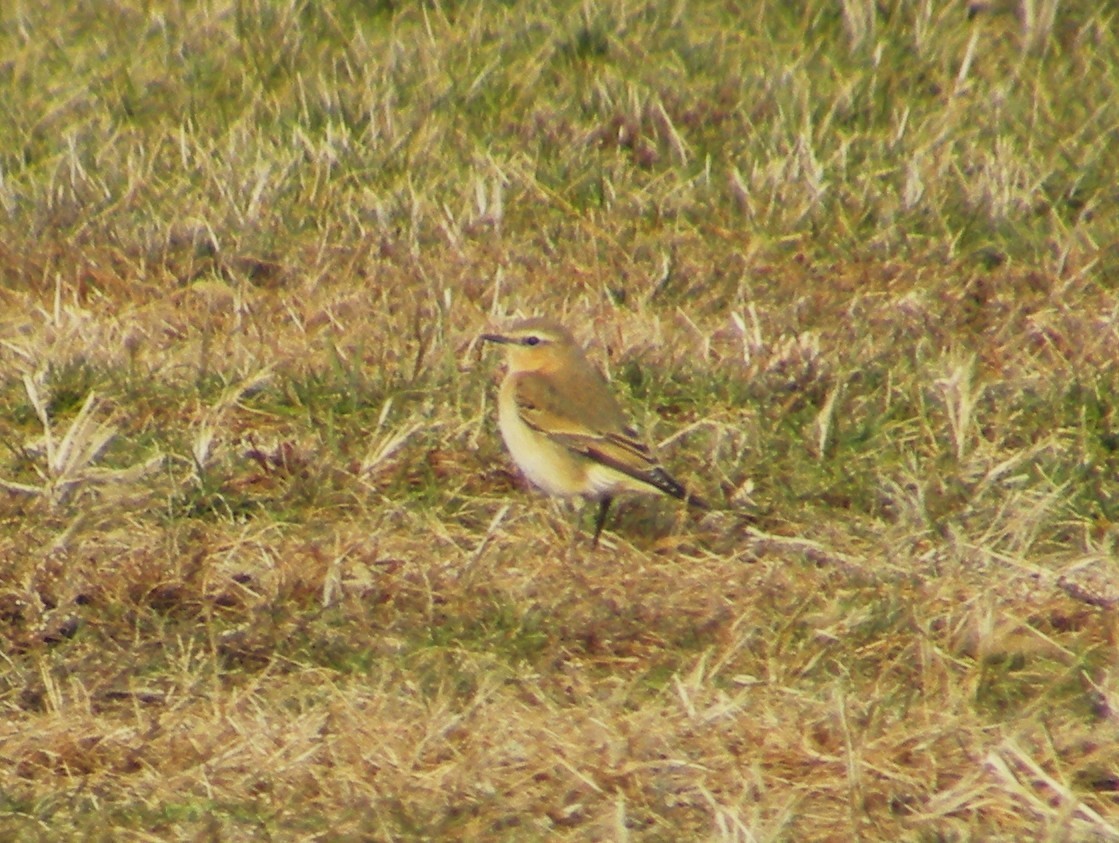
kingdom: Animalia
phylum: Chordata
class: Aves
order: Passeriformes
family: Muscicapidae
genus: Oenanthe
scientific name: Oenanthe oenanthe
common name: Northern wheatear
